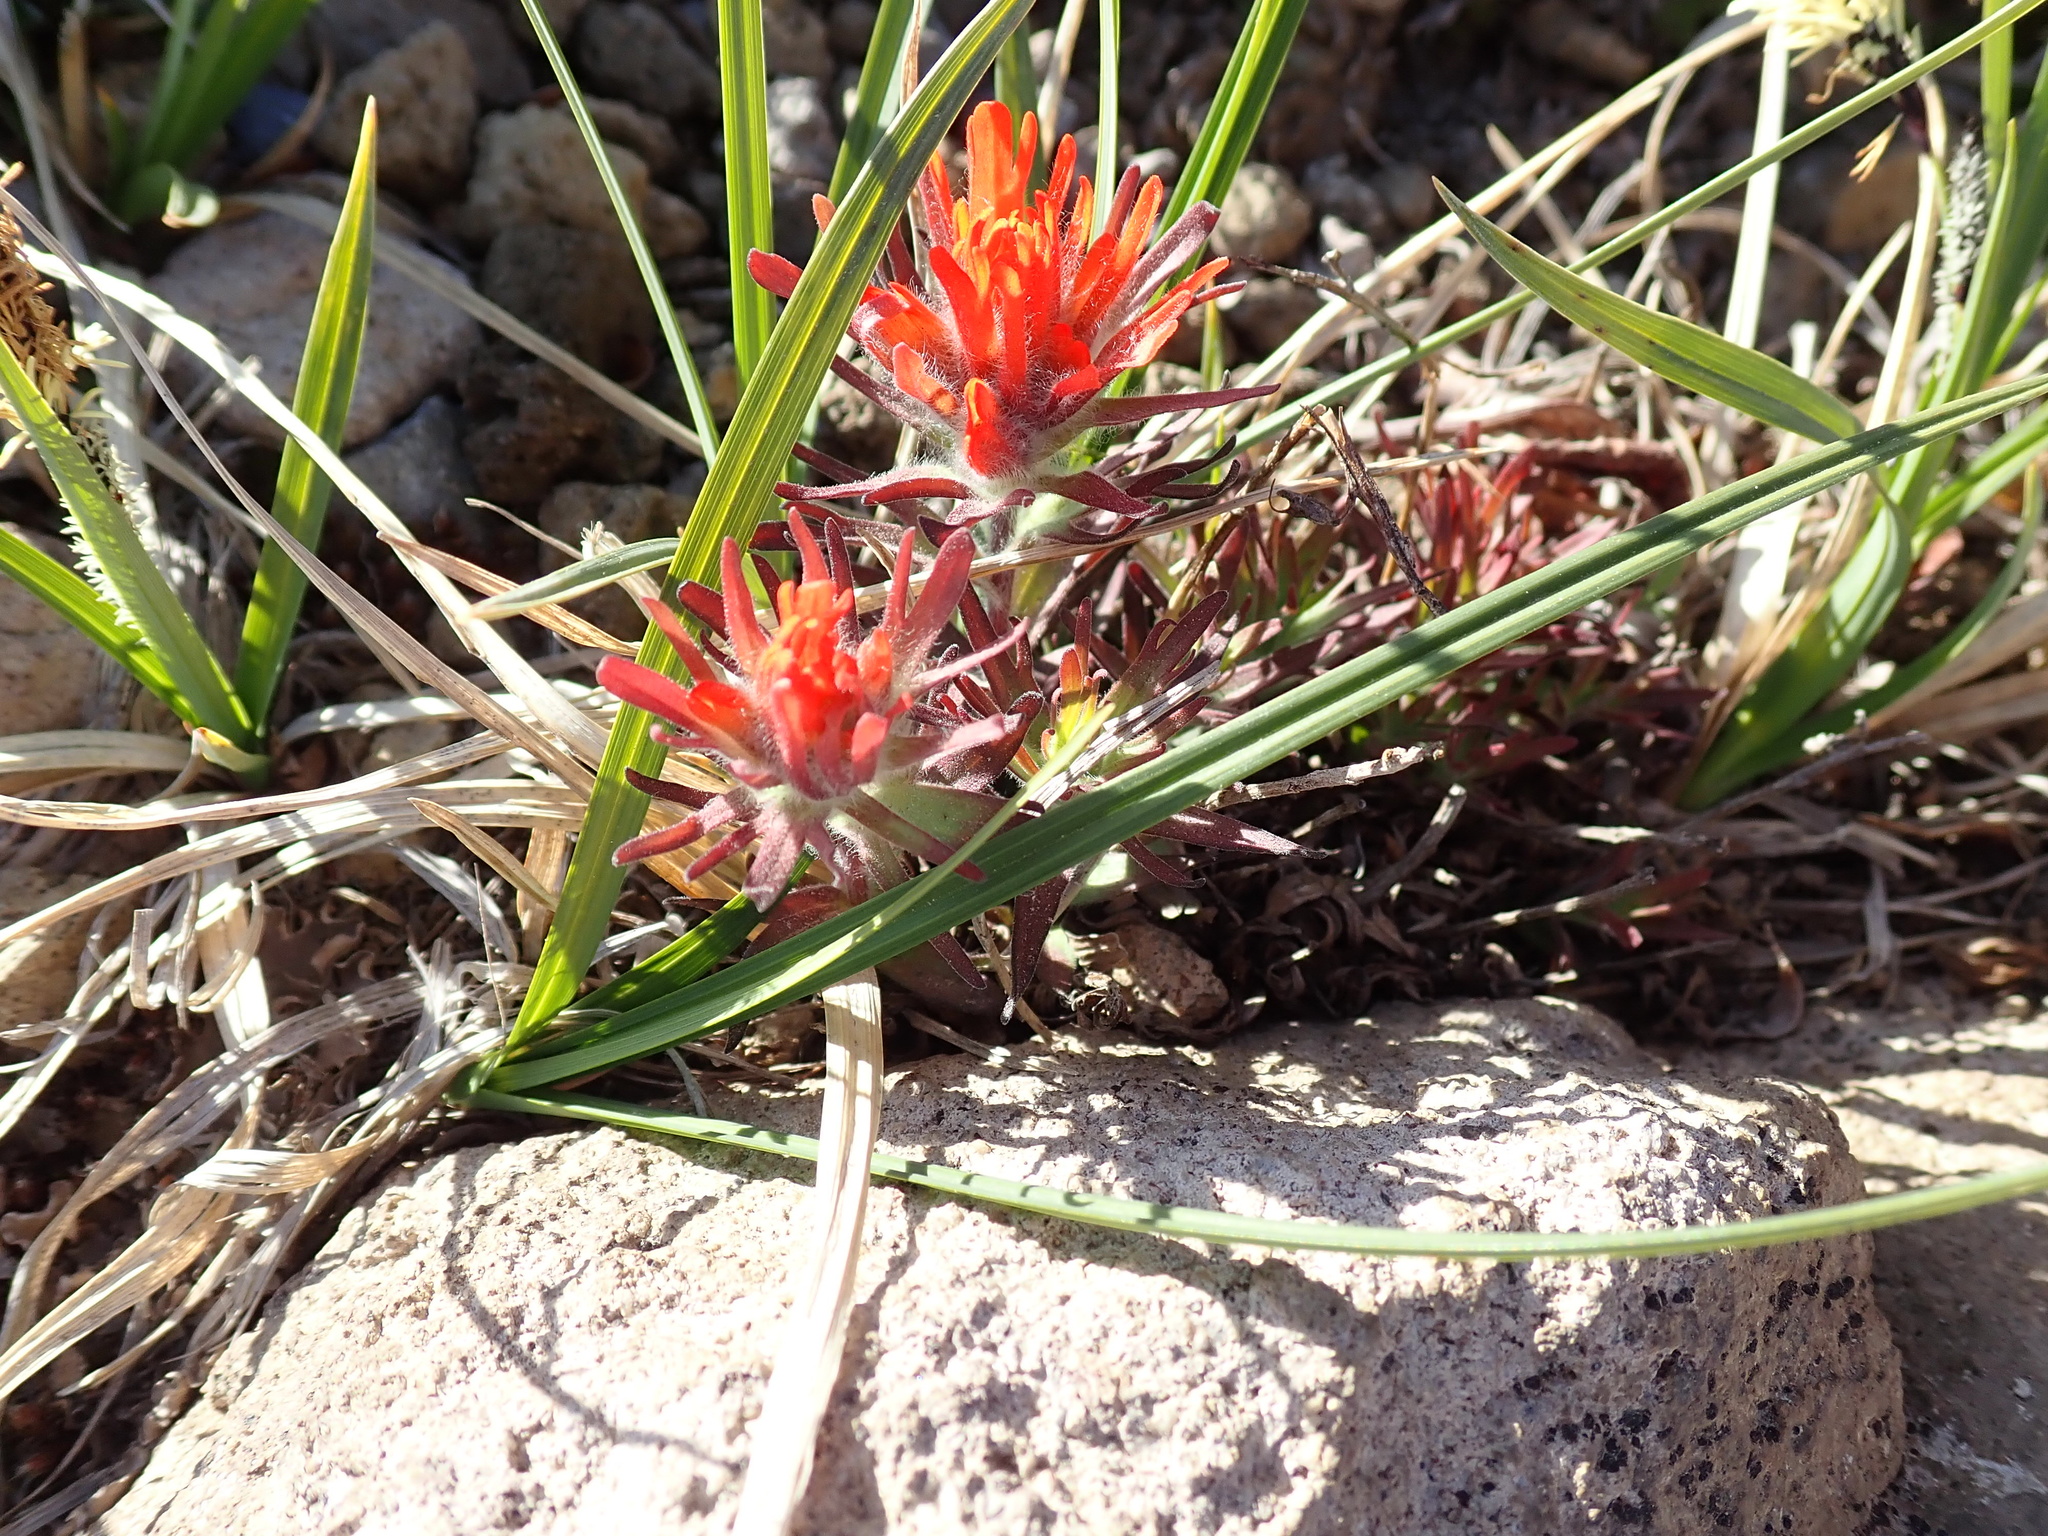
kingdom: Plantae
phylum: Tracheophyta
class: Magnoliopsida
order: Lamiales
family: Orobanchaceae
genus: Castilleja
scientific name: Castilleja rupicola
